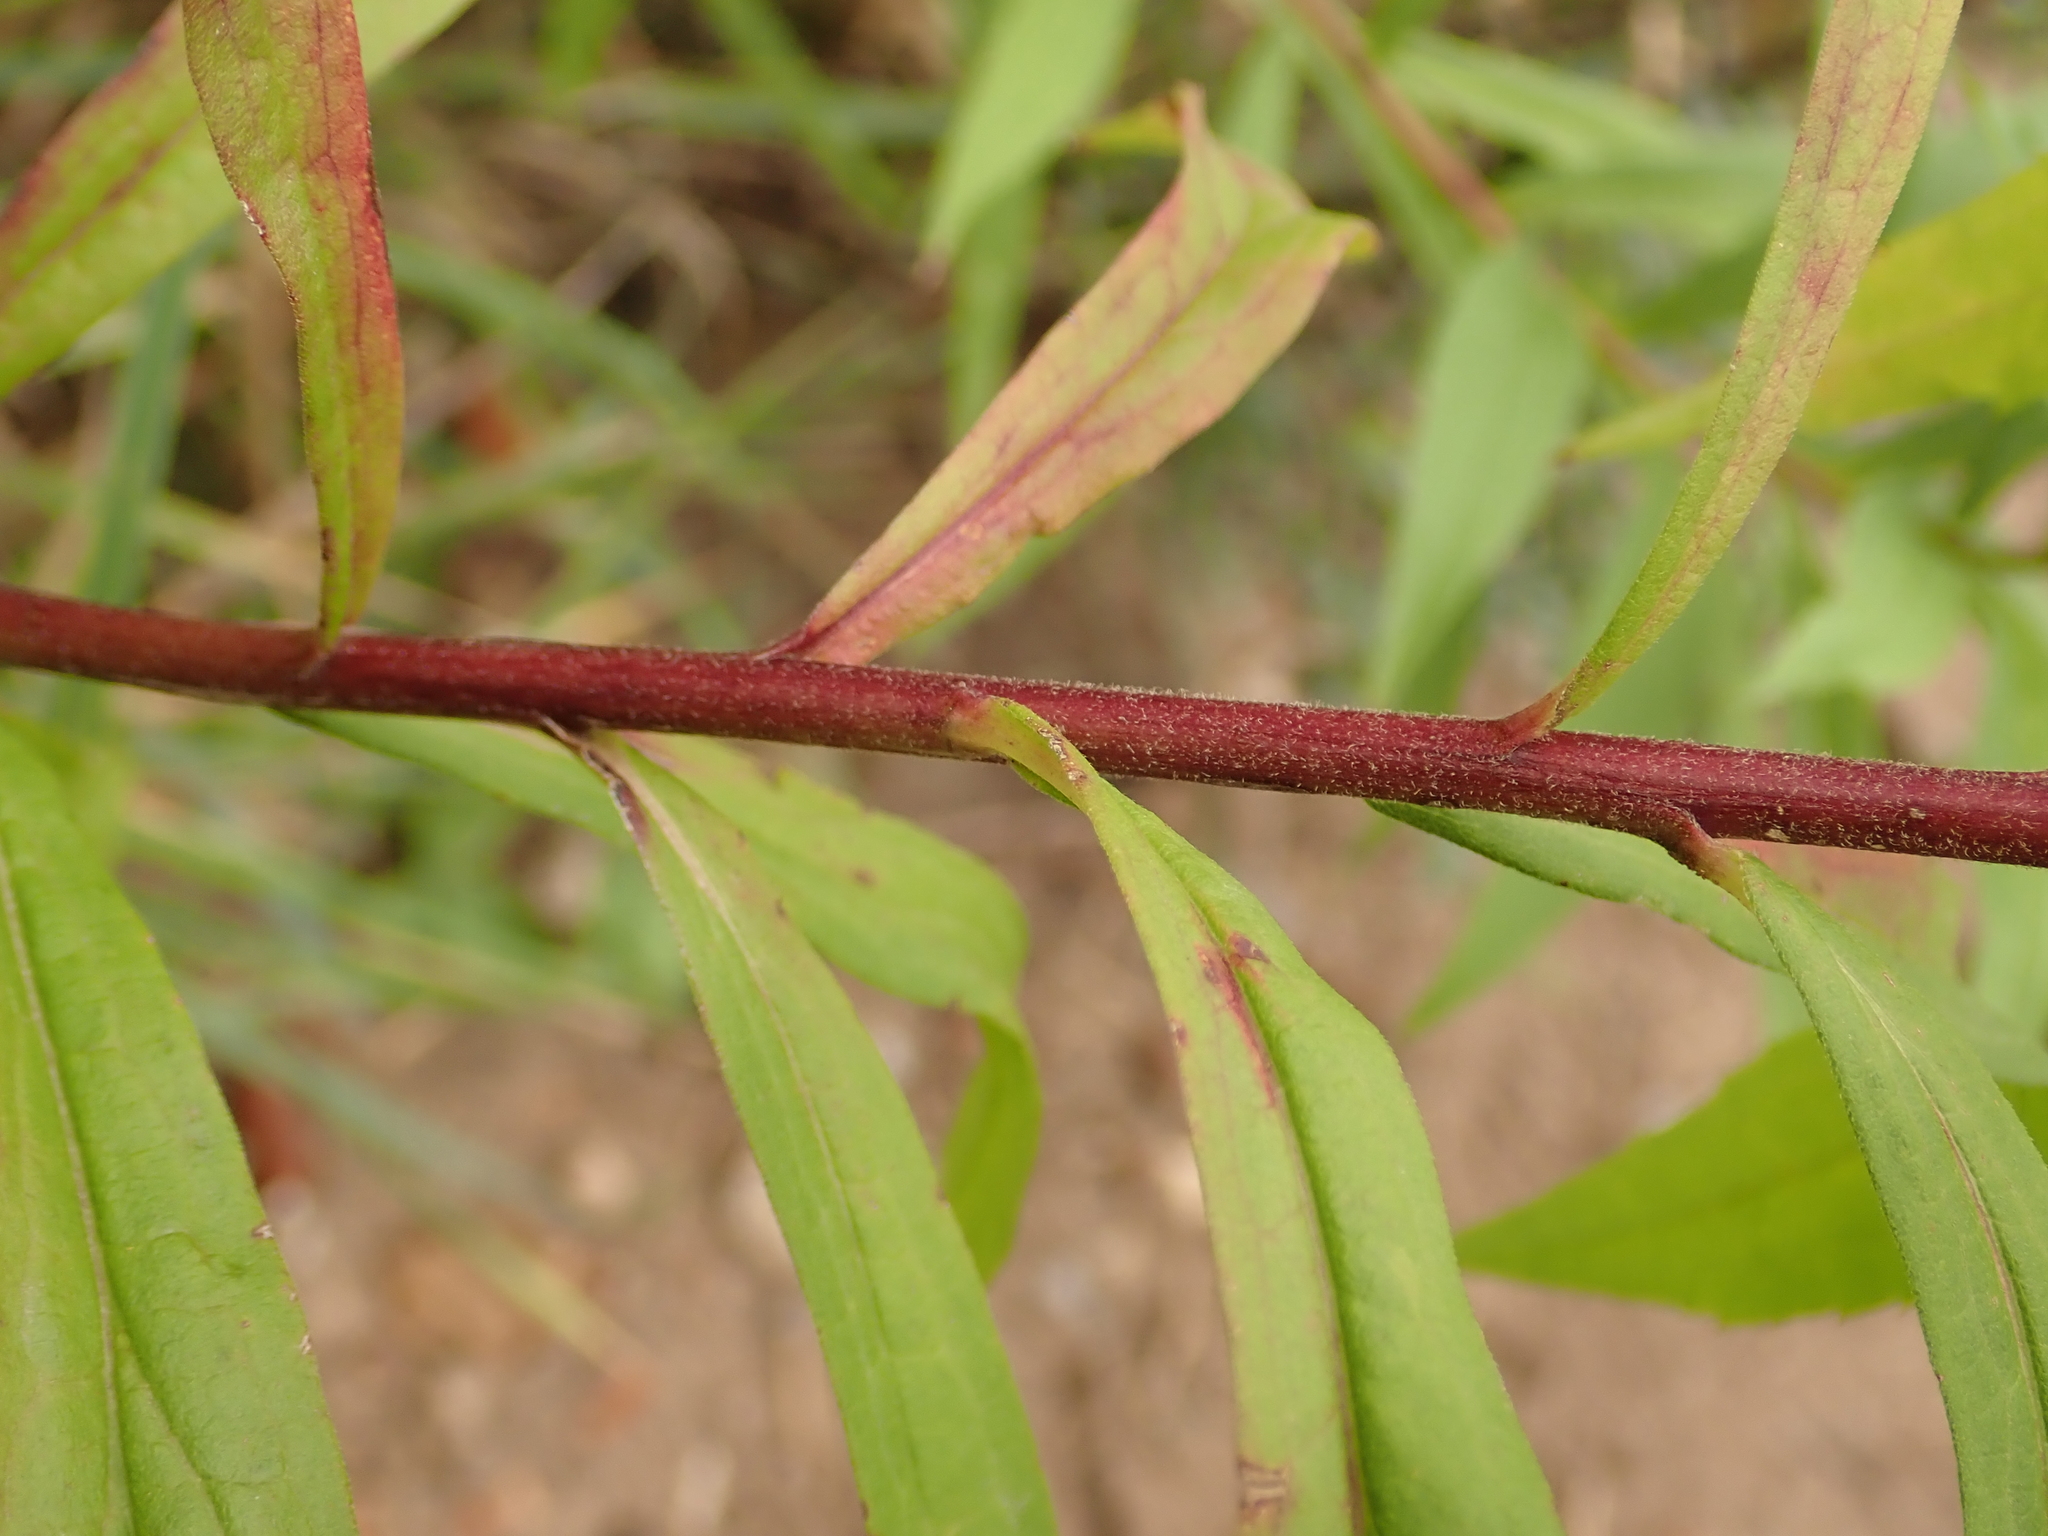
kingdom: Plantae
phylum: Tracheophyta
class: Magnoliopsida
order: Asterales
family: Asteraceae
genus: Solidago
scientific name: Solidago canadensis
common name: Canada goldenrod
